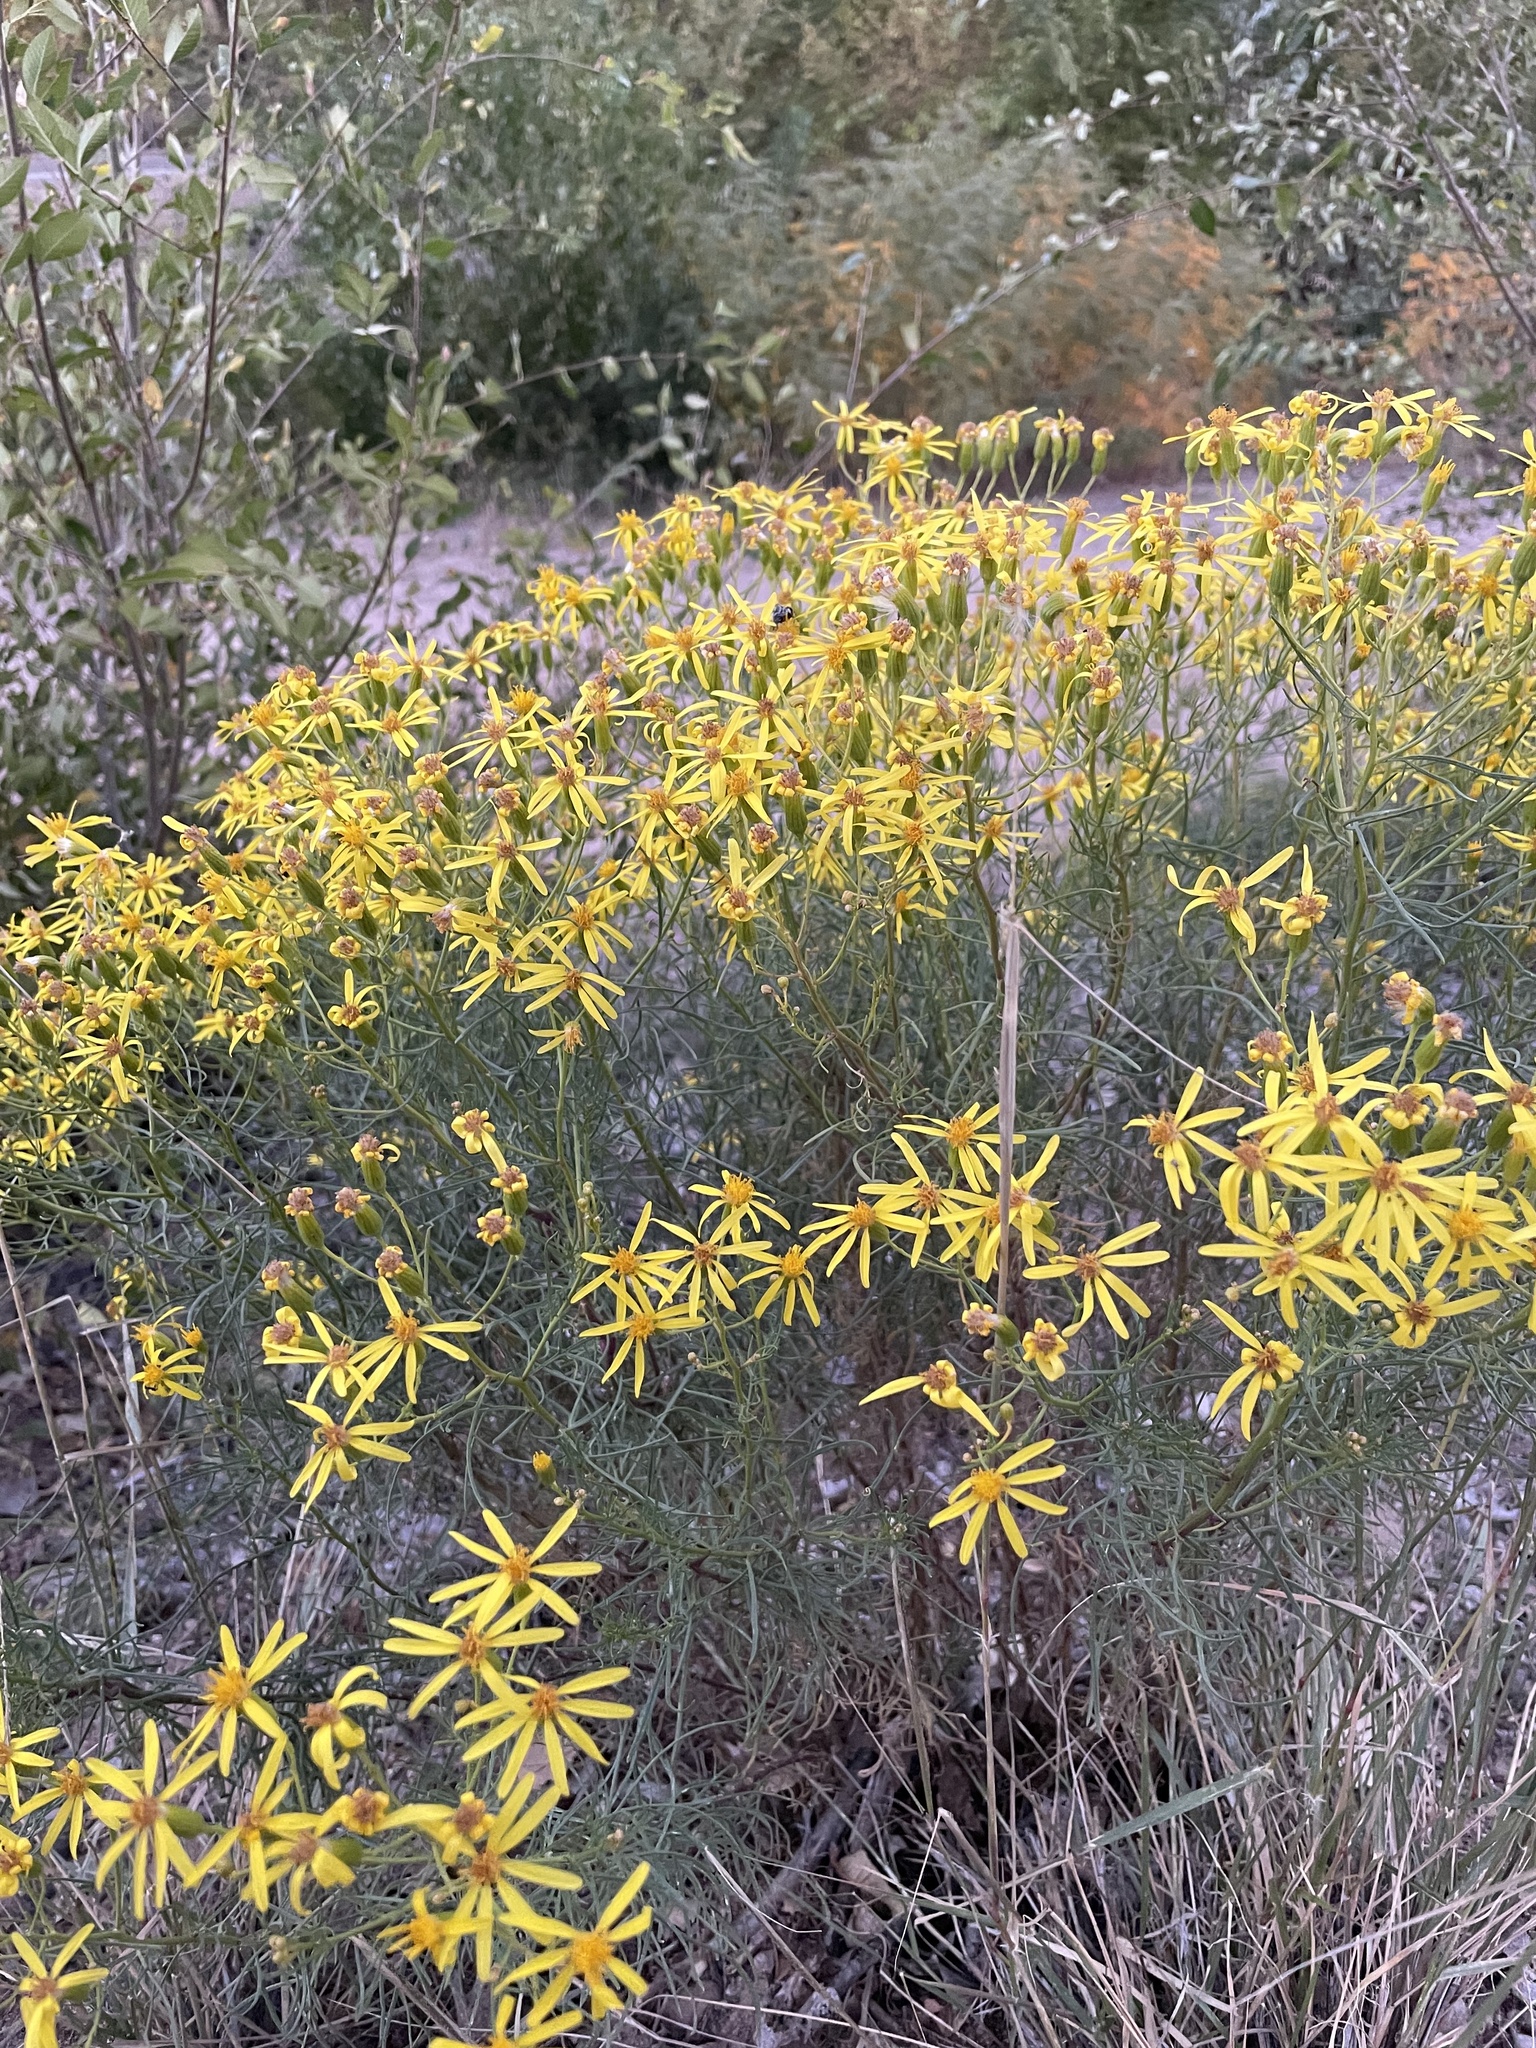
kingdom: Plantae
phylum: Tracheophyta
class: Magnoliopsida
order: Asterales
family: Asteraceae
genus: Senecio
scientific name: Senecio spartioides
